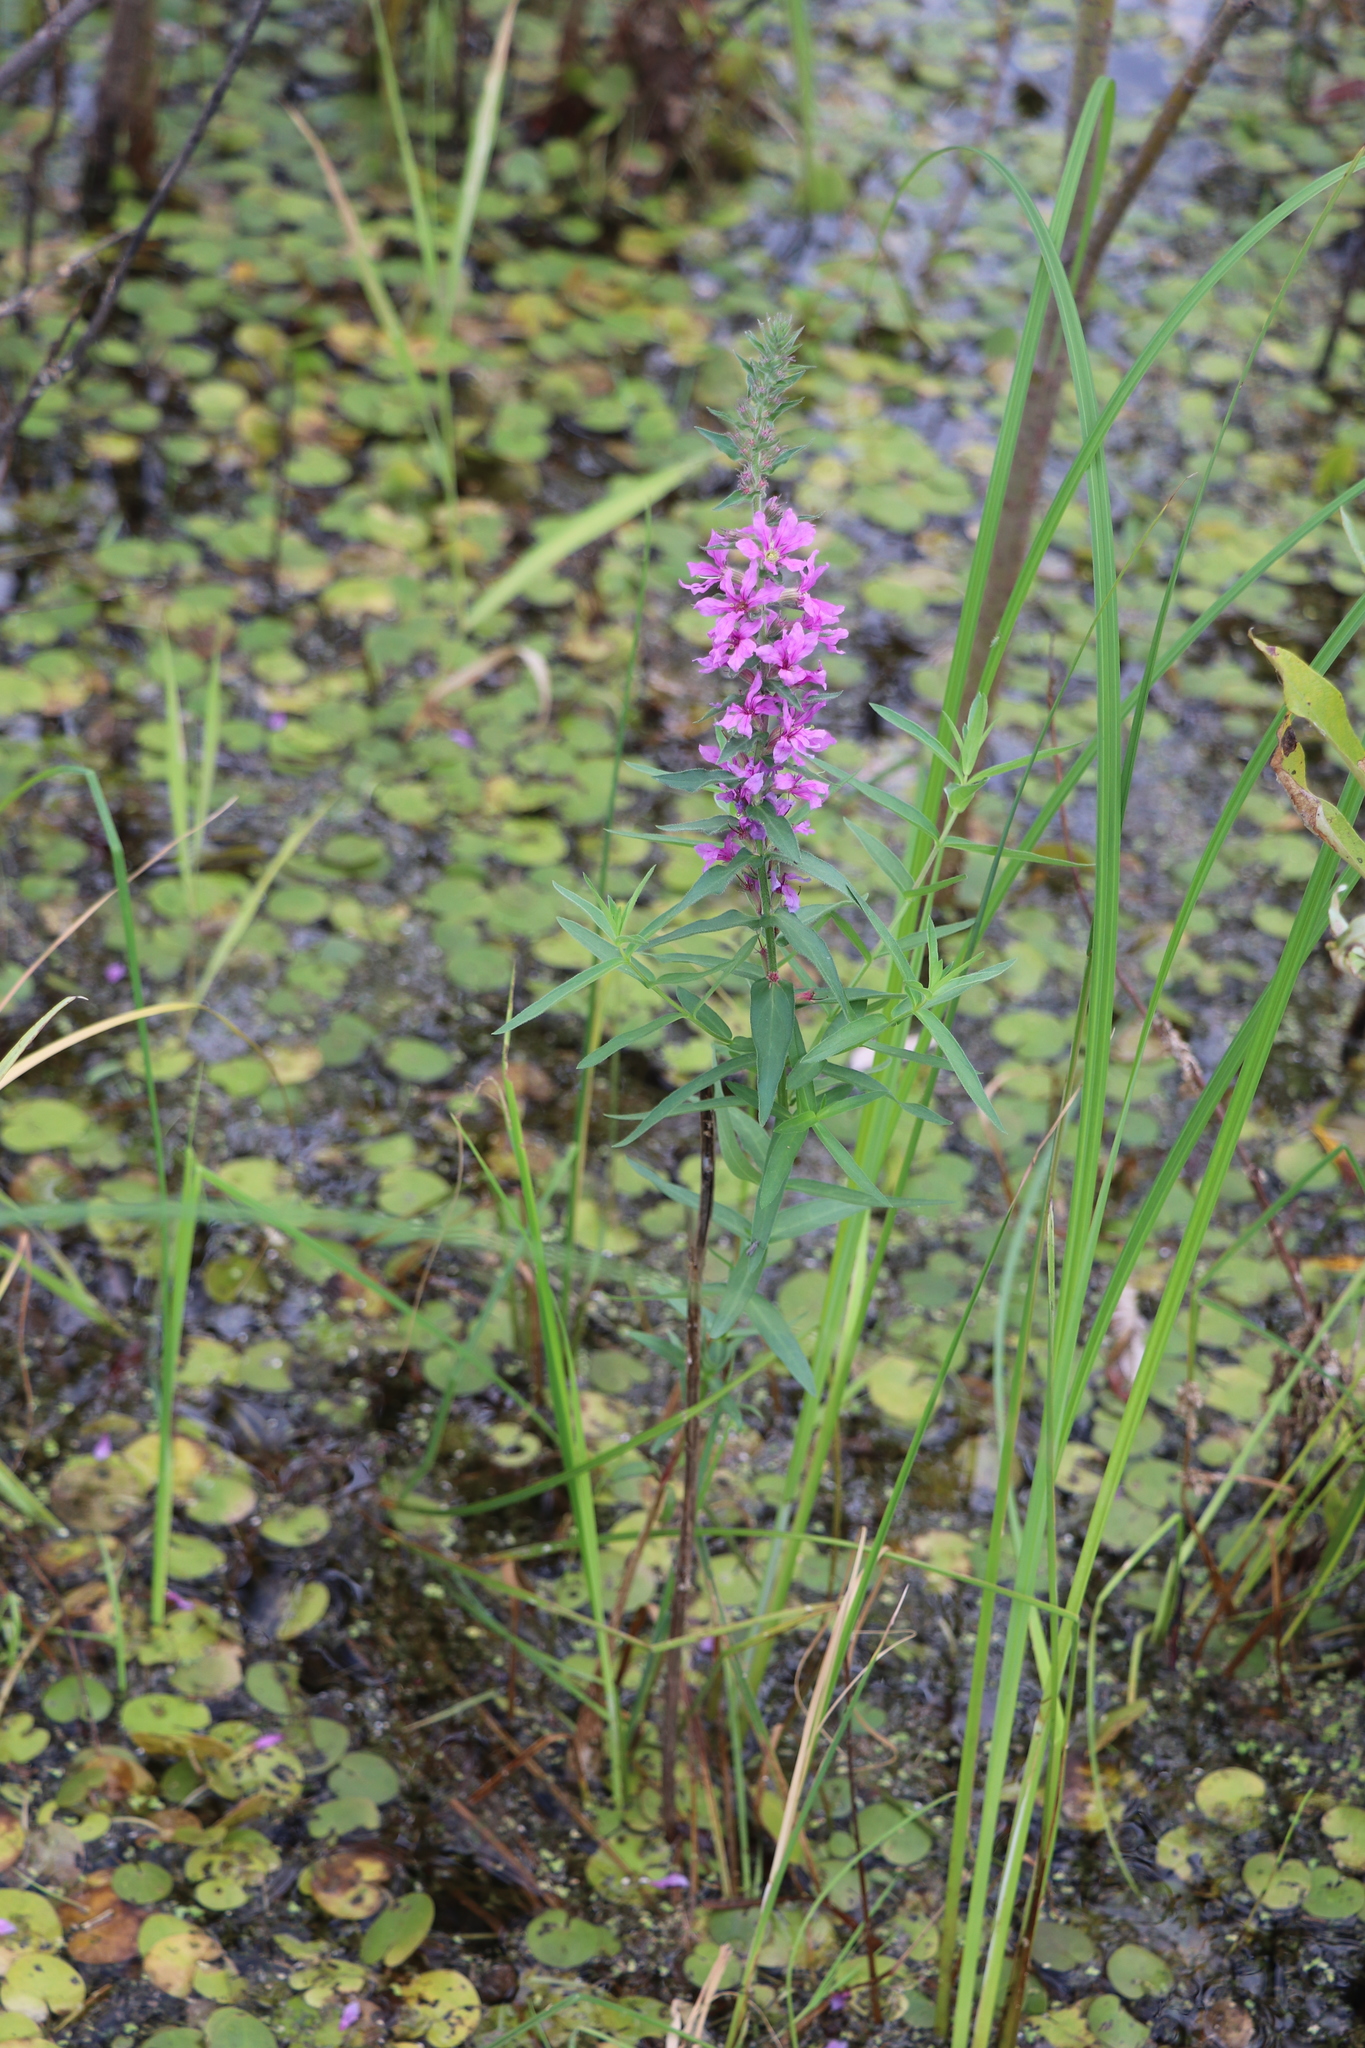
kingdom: Plantae
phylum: Tracheophyta
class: Magnoliopsida
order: Myrtales
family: Lythraceae
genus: Lythrum
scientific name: Lythrum salicaria
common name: Purple loosestrife
